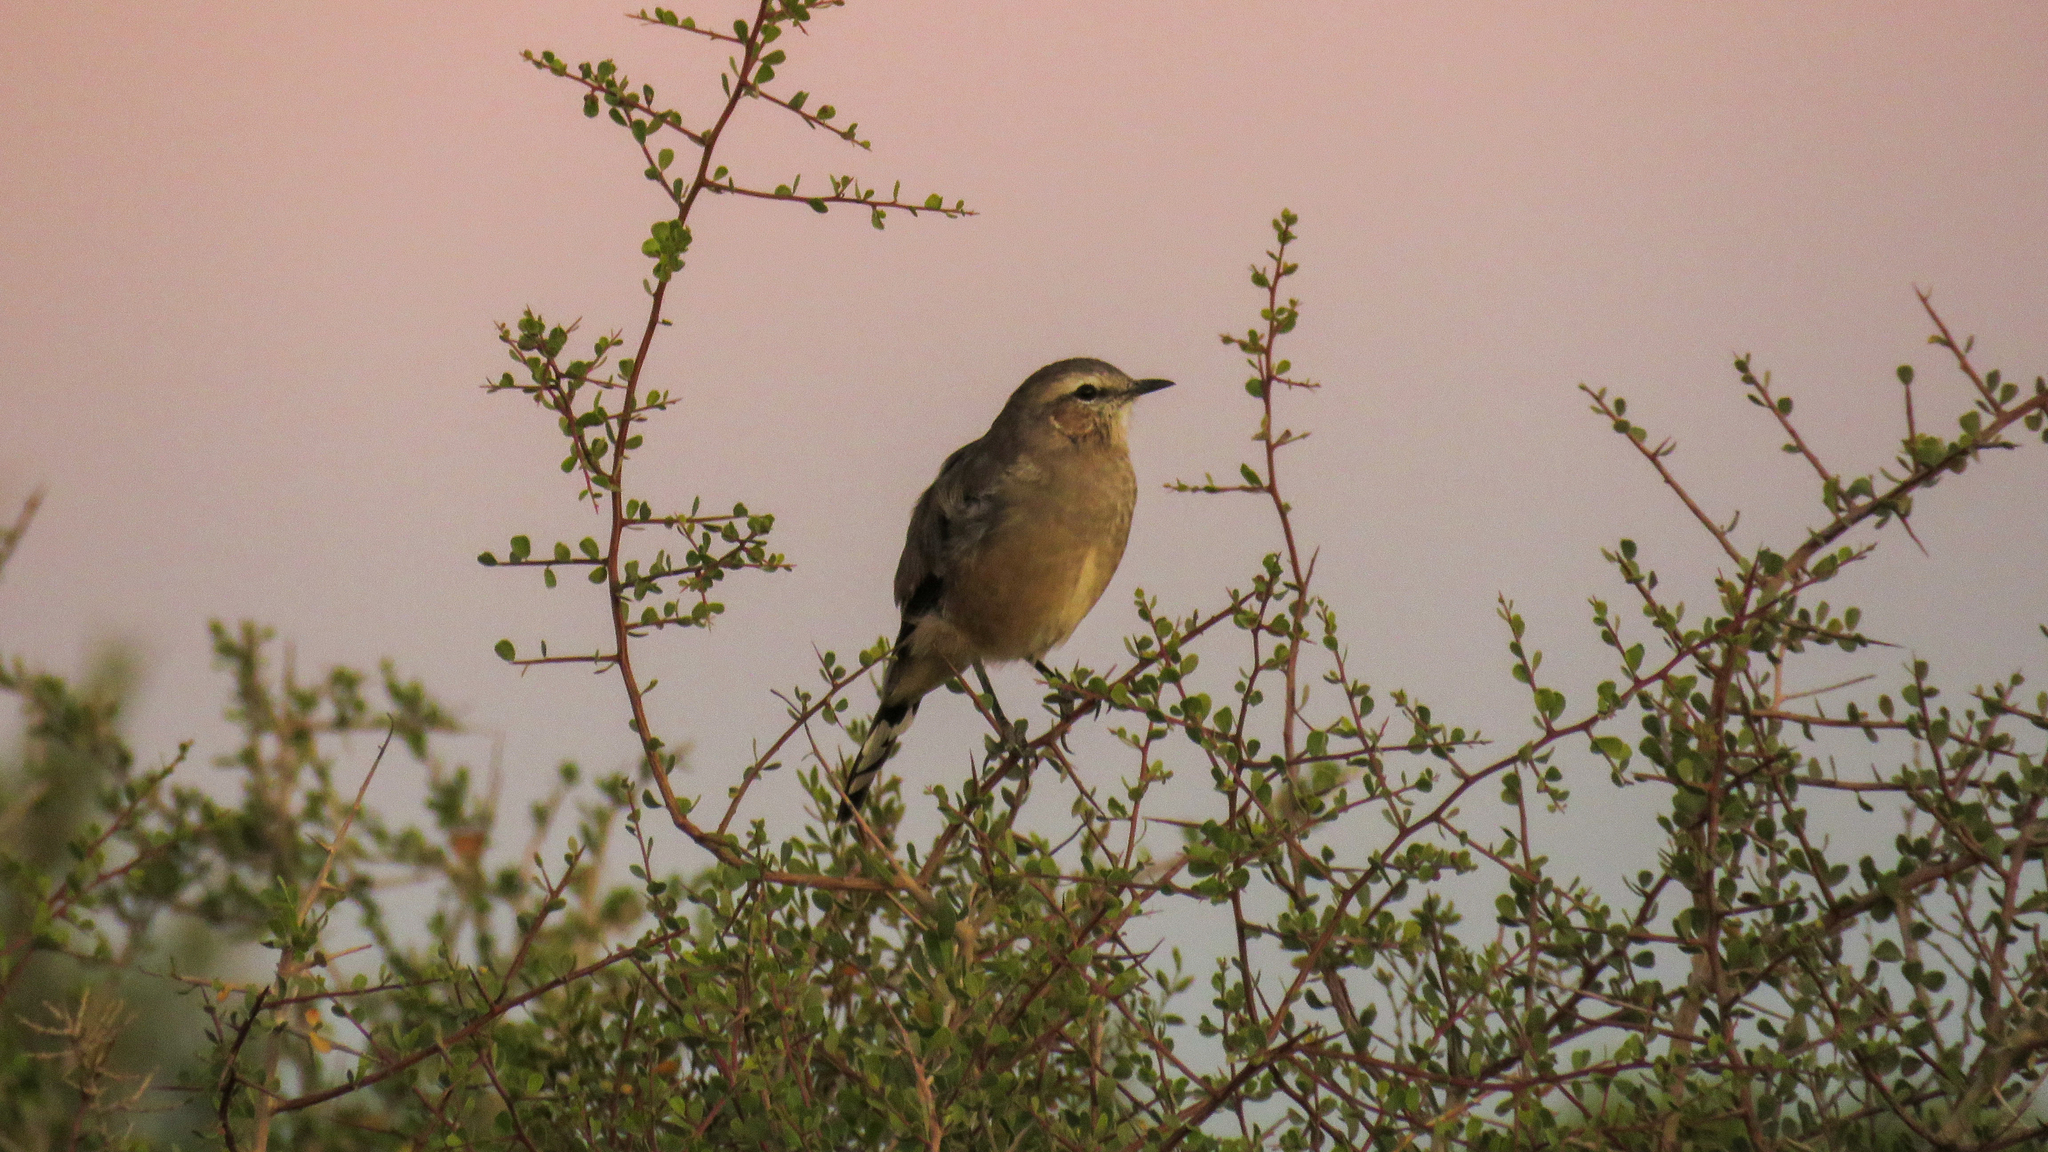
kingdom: Animalia
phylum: Chordata
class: Aves
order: Passeriformes
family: Mimidae
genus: Mimus
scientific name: Mimus patagonicus
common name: Patagonian mockingbird
